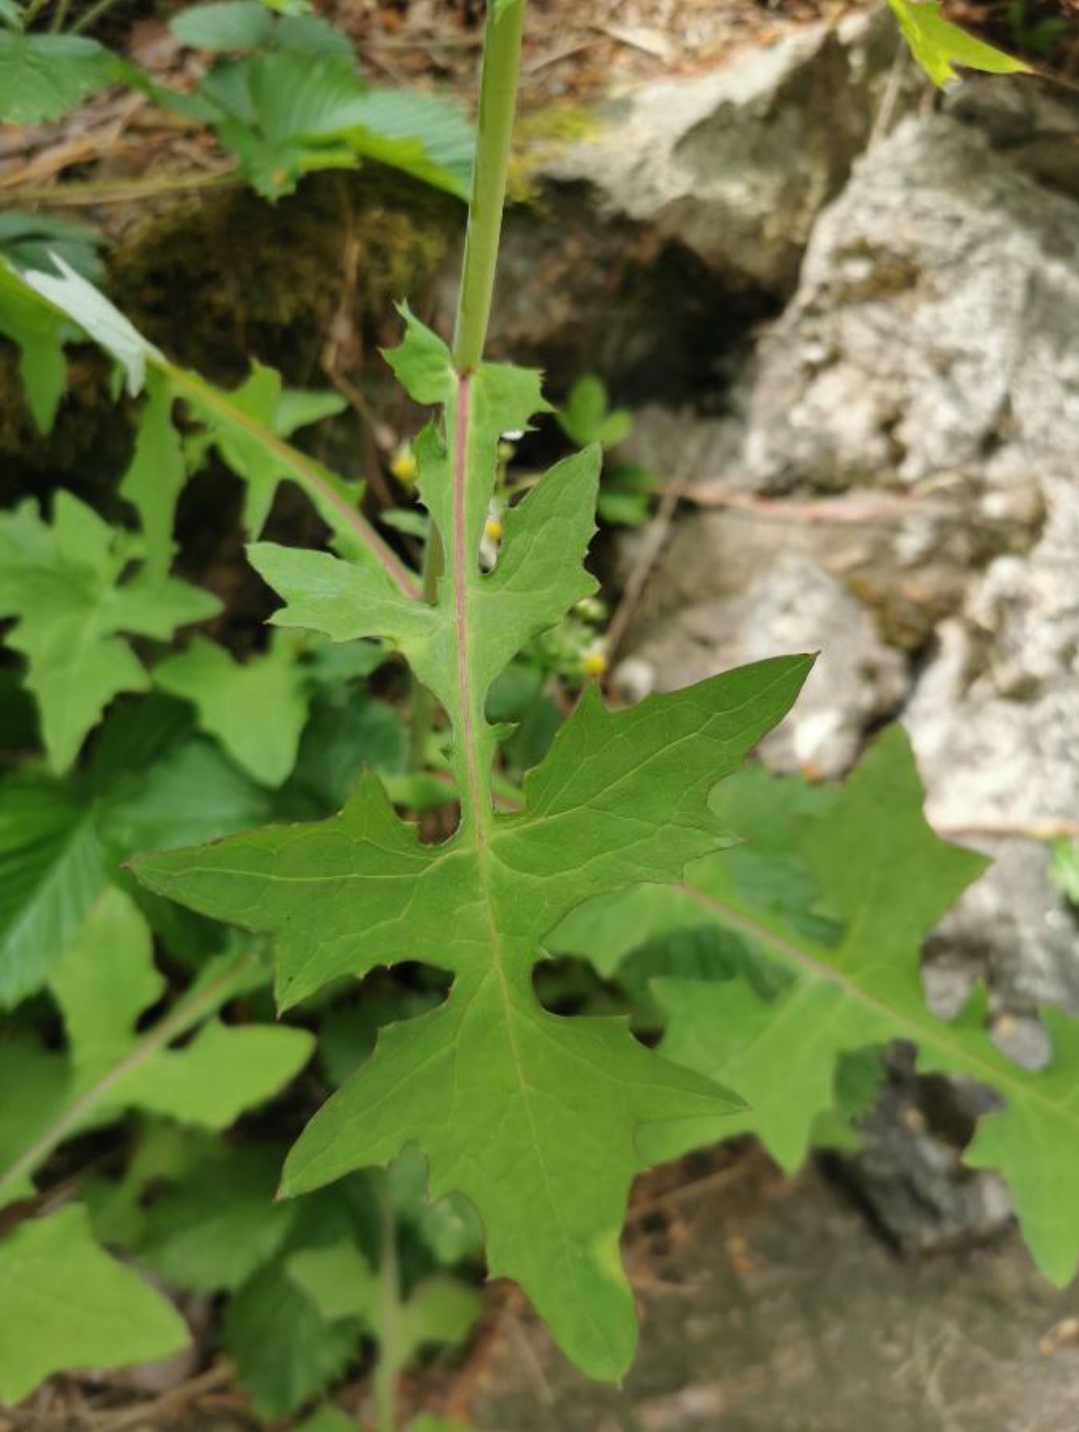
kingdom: Plantae
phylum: Tracheophyta
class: Magnoliopsida
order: Asterales
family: Asteraceae
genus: Mycelis
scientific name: Mycelis muralis
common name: Wall lettuce
